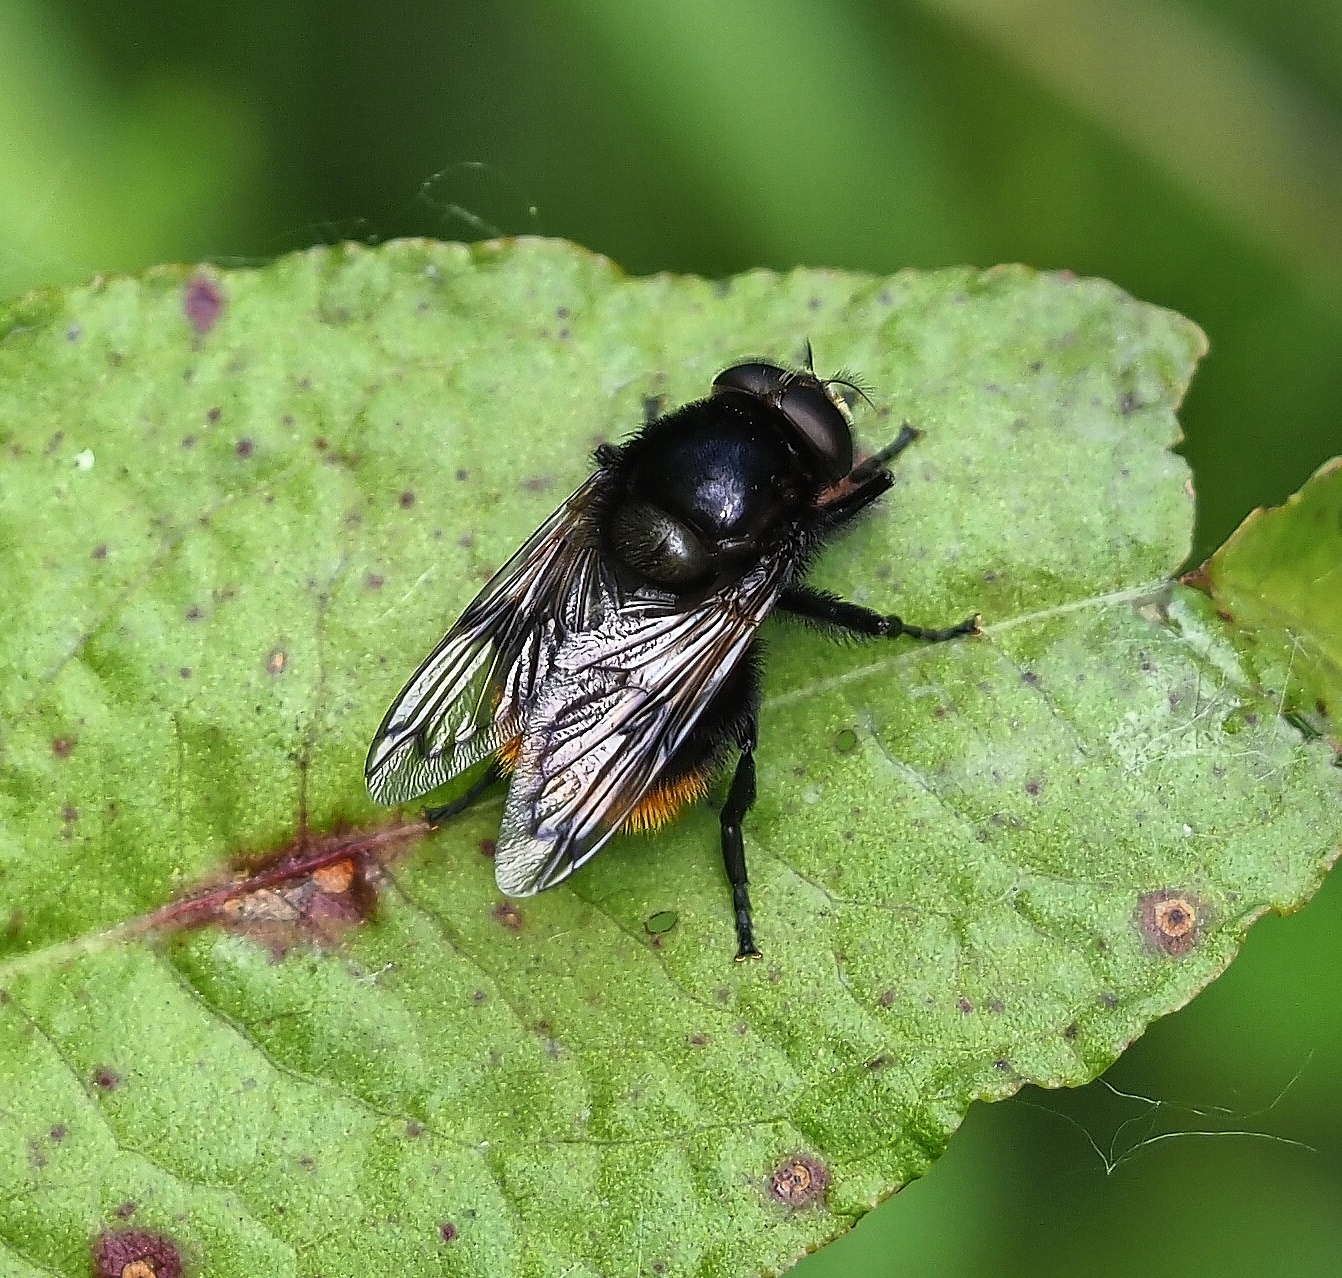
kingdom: Animalia
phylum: Arthropoda
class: Insecta
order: Diptera
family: Syrphidae
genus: Volucella
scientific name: Volucella bombylans
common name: Bumble bee hover fly
